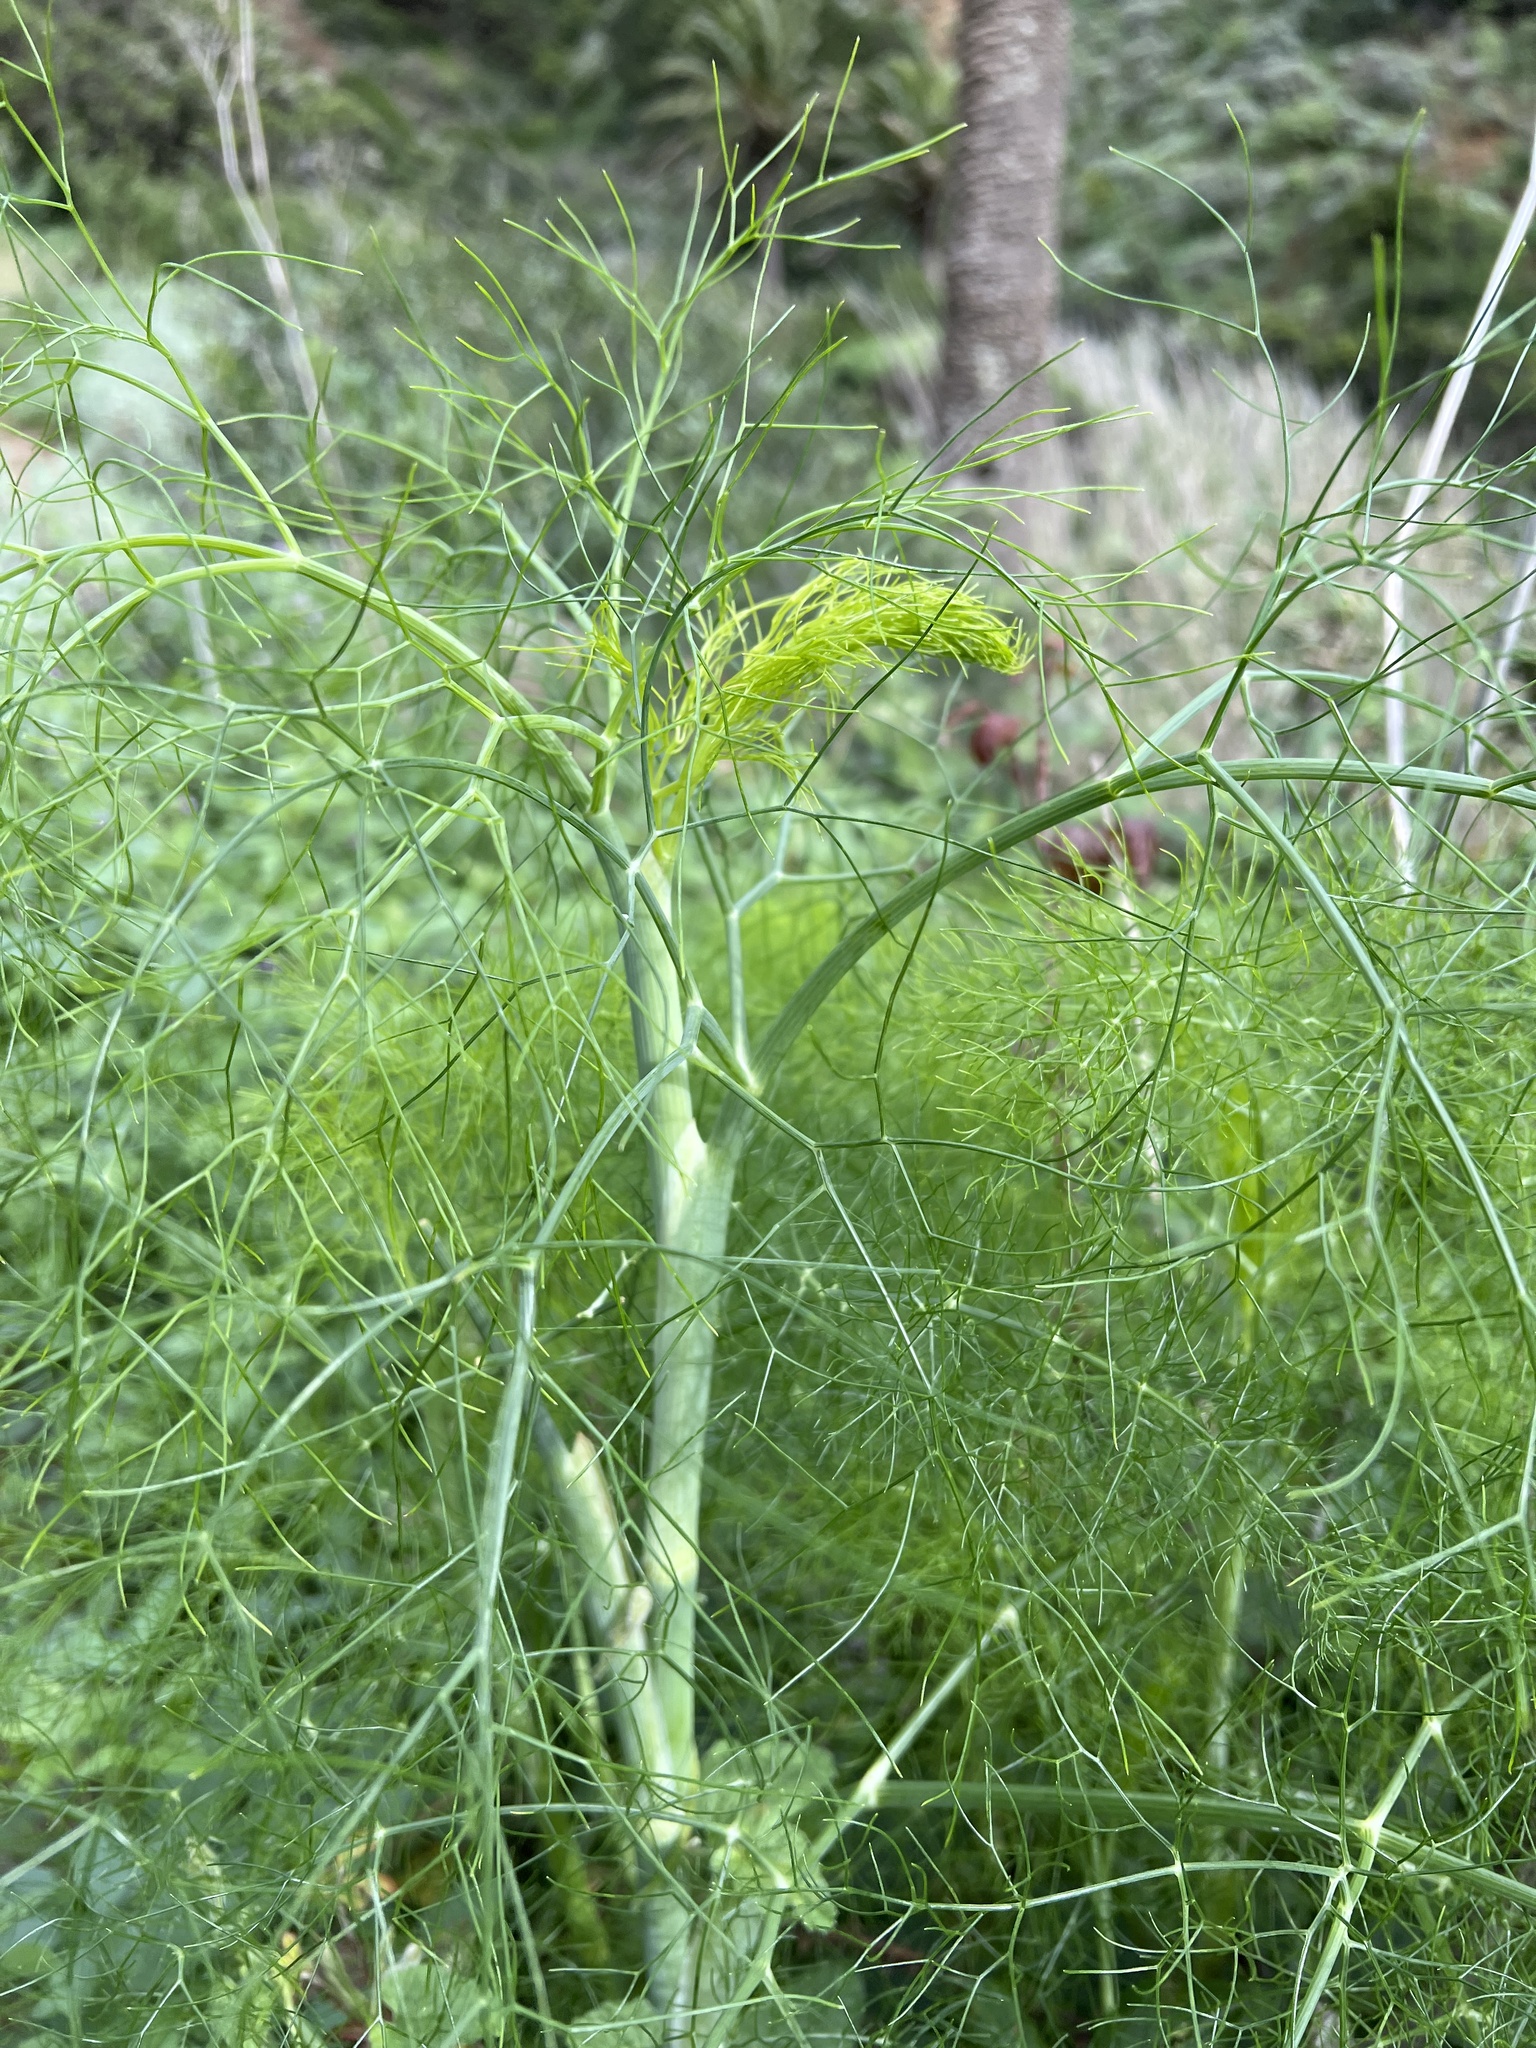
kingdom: Plantae
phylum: Tracheophyta
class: Magnoliopsida
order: Apiales
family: Apiaceae
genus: Foeniculum
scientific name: Foeniculum vulgare
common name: Fennel
